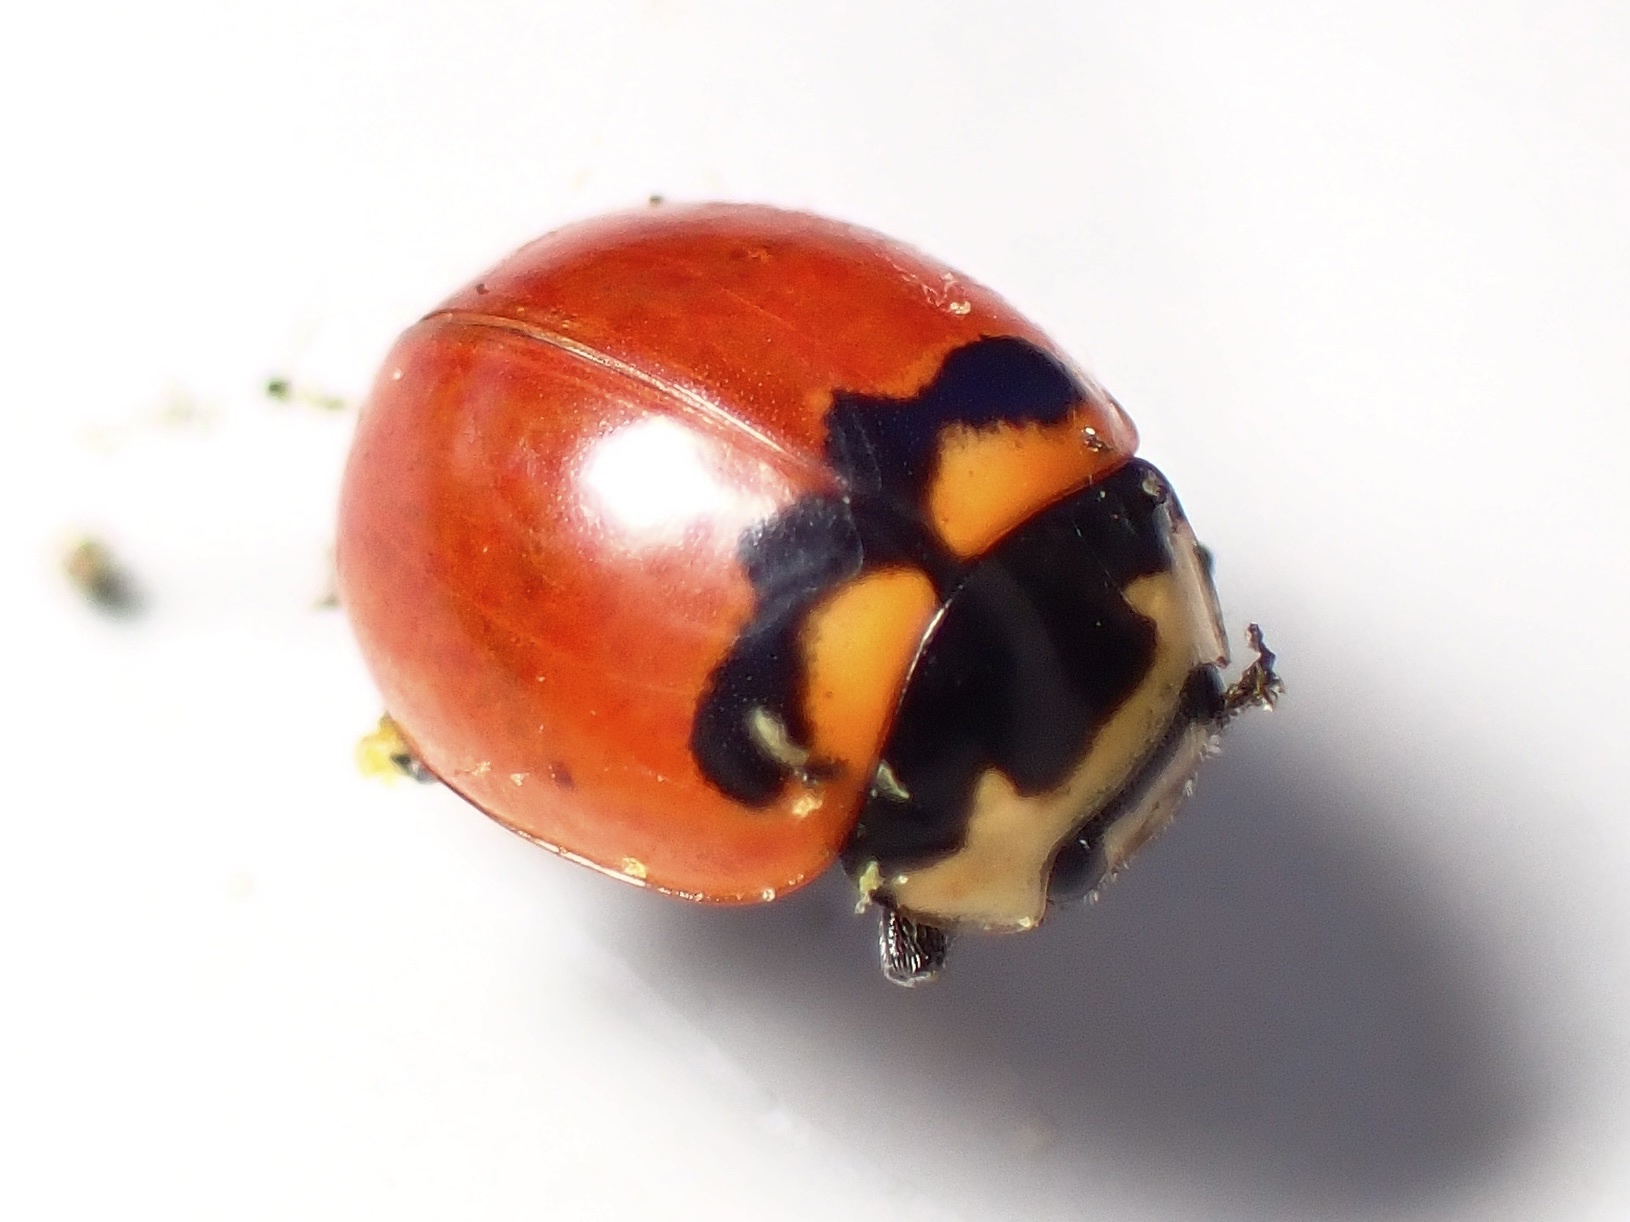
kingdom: Animalia
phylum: Arthropoda
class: Insecta
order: Coleoptera
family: Coccinellidae
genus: Coccinella
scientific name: Coccinella trifasciata
